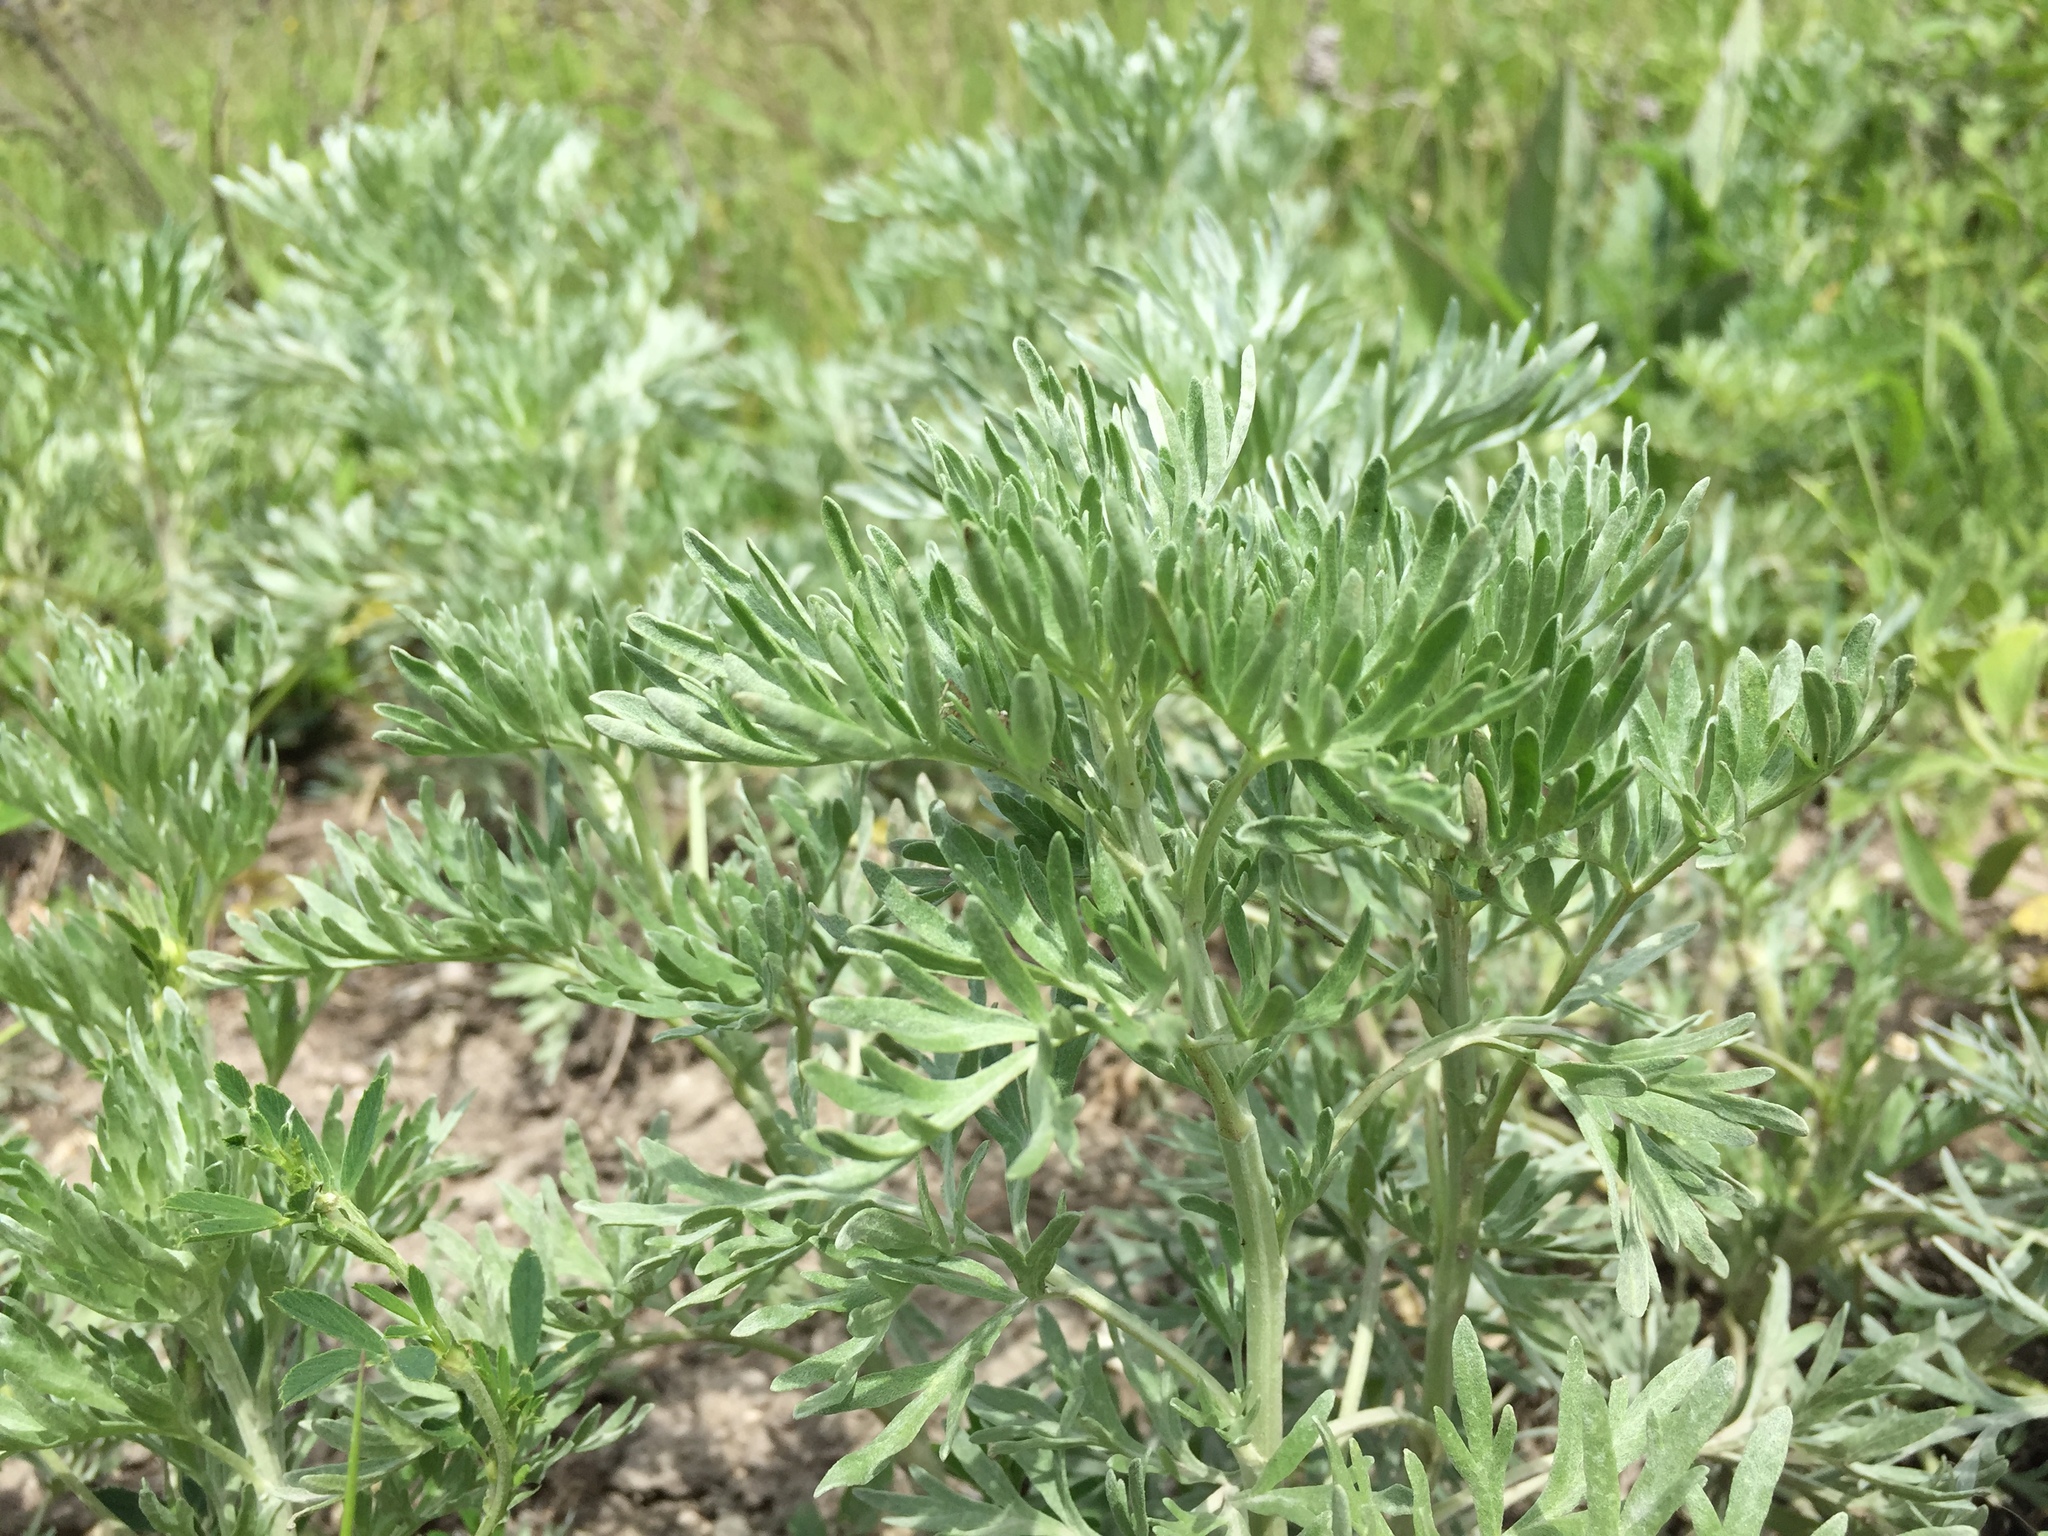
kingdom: Plantae
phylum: Tracheophyta
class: Magnoliopsida
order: Asterales
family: Asteraceae
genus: Artemisia
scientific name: Artemisia absinthium
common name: Wormwood
